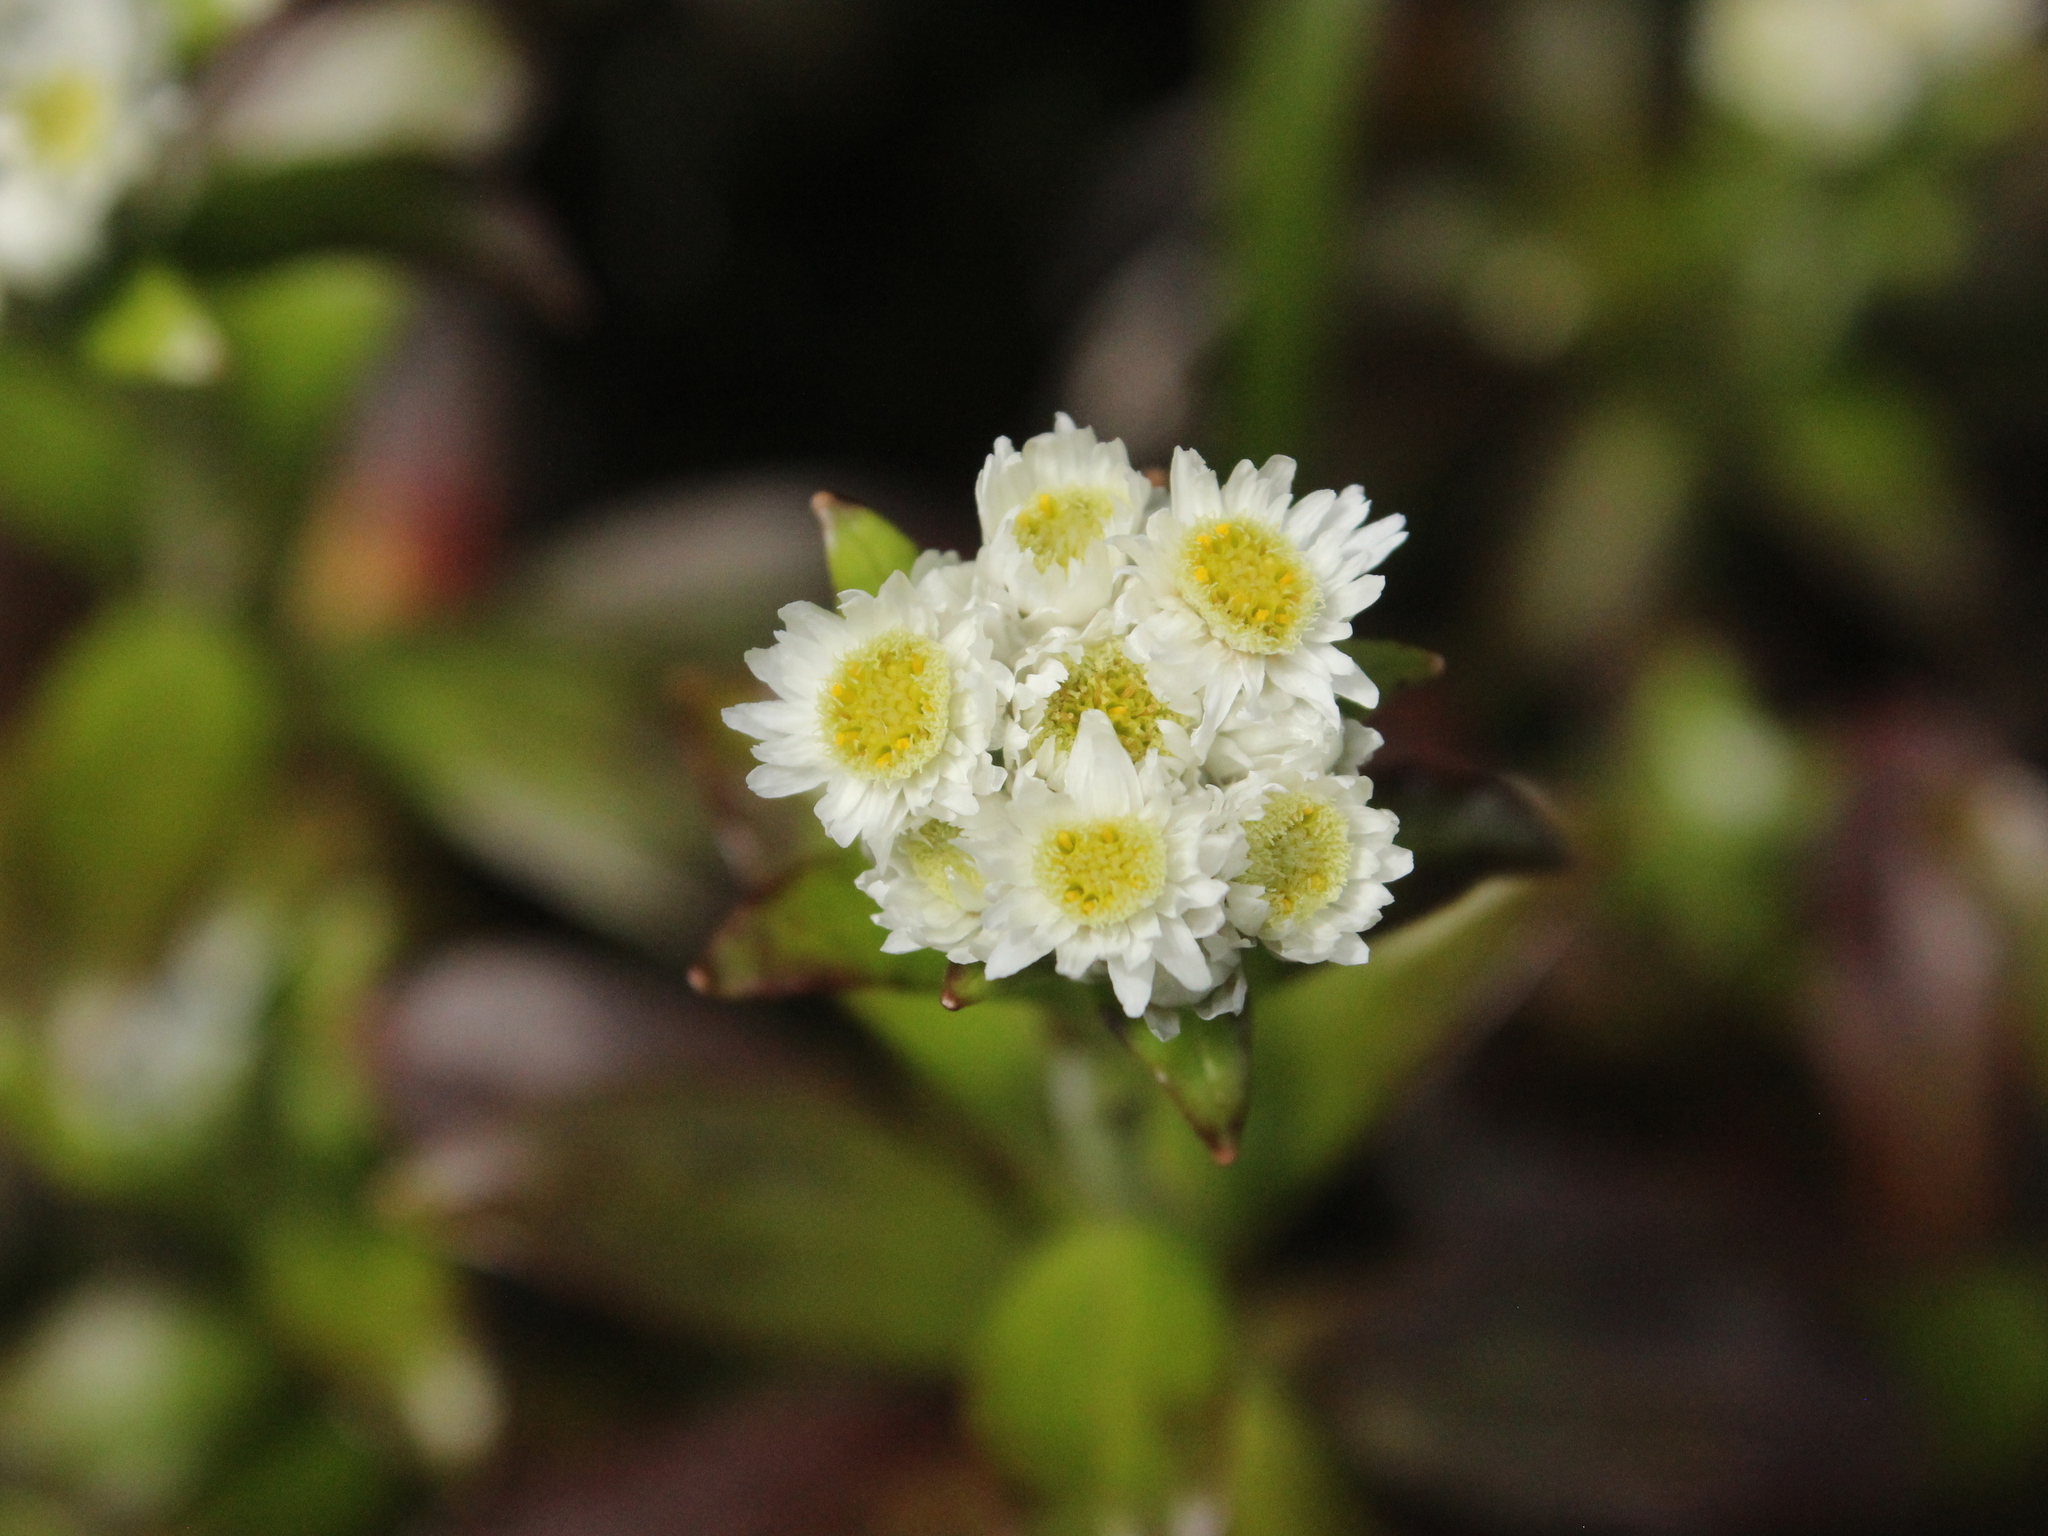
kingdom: Plantae
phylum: Tracheophyta
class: Magnoliopsida
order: Asterales
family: Asteraceae
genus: Anaphalioides
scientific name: Anaphalioides trinervis
